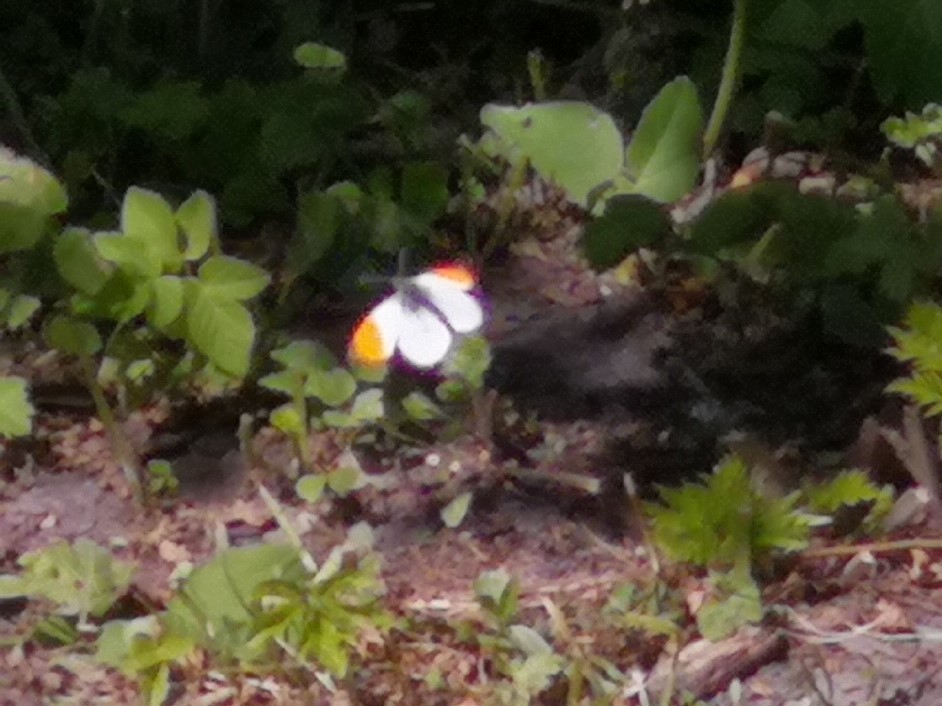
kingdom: Animalia
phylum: Arthropoda
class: Insecta
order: Lepidoptera
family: Pieridae
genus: Anthocharis
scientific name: Anthocharis cardamines
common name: Orange-tip
